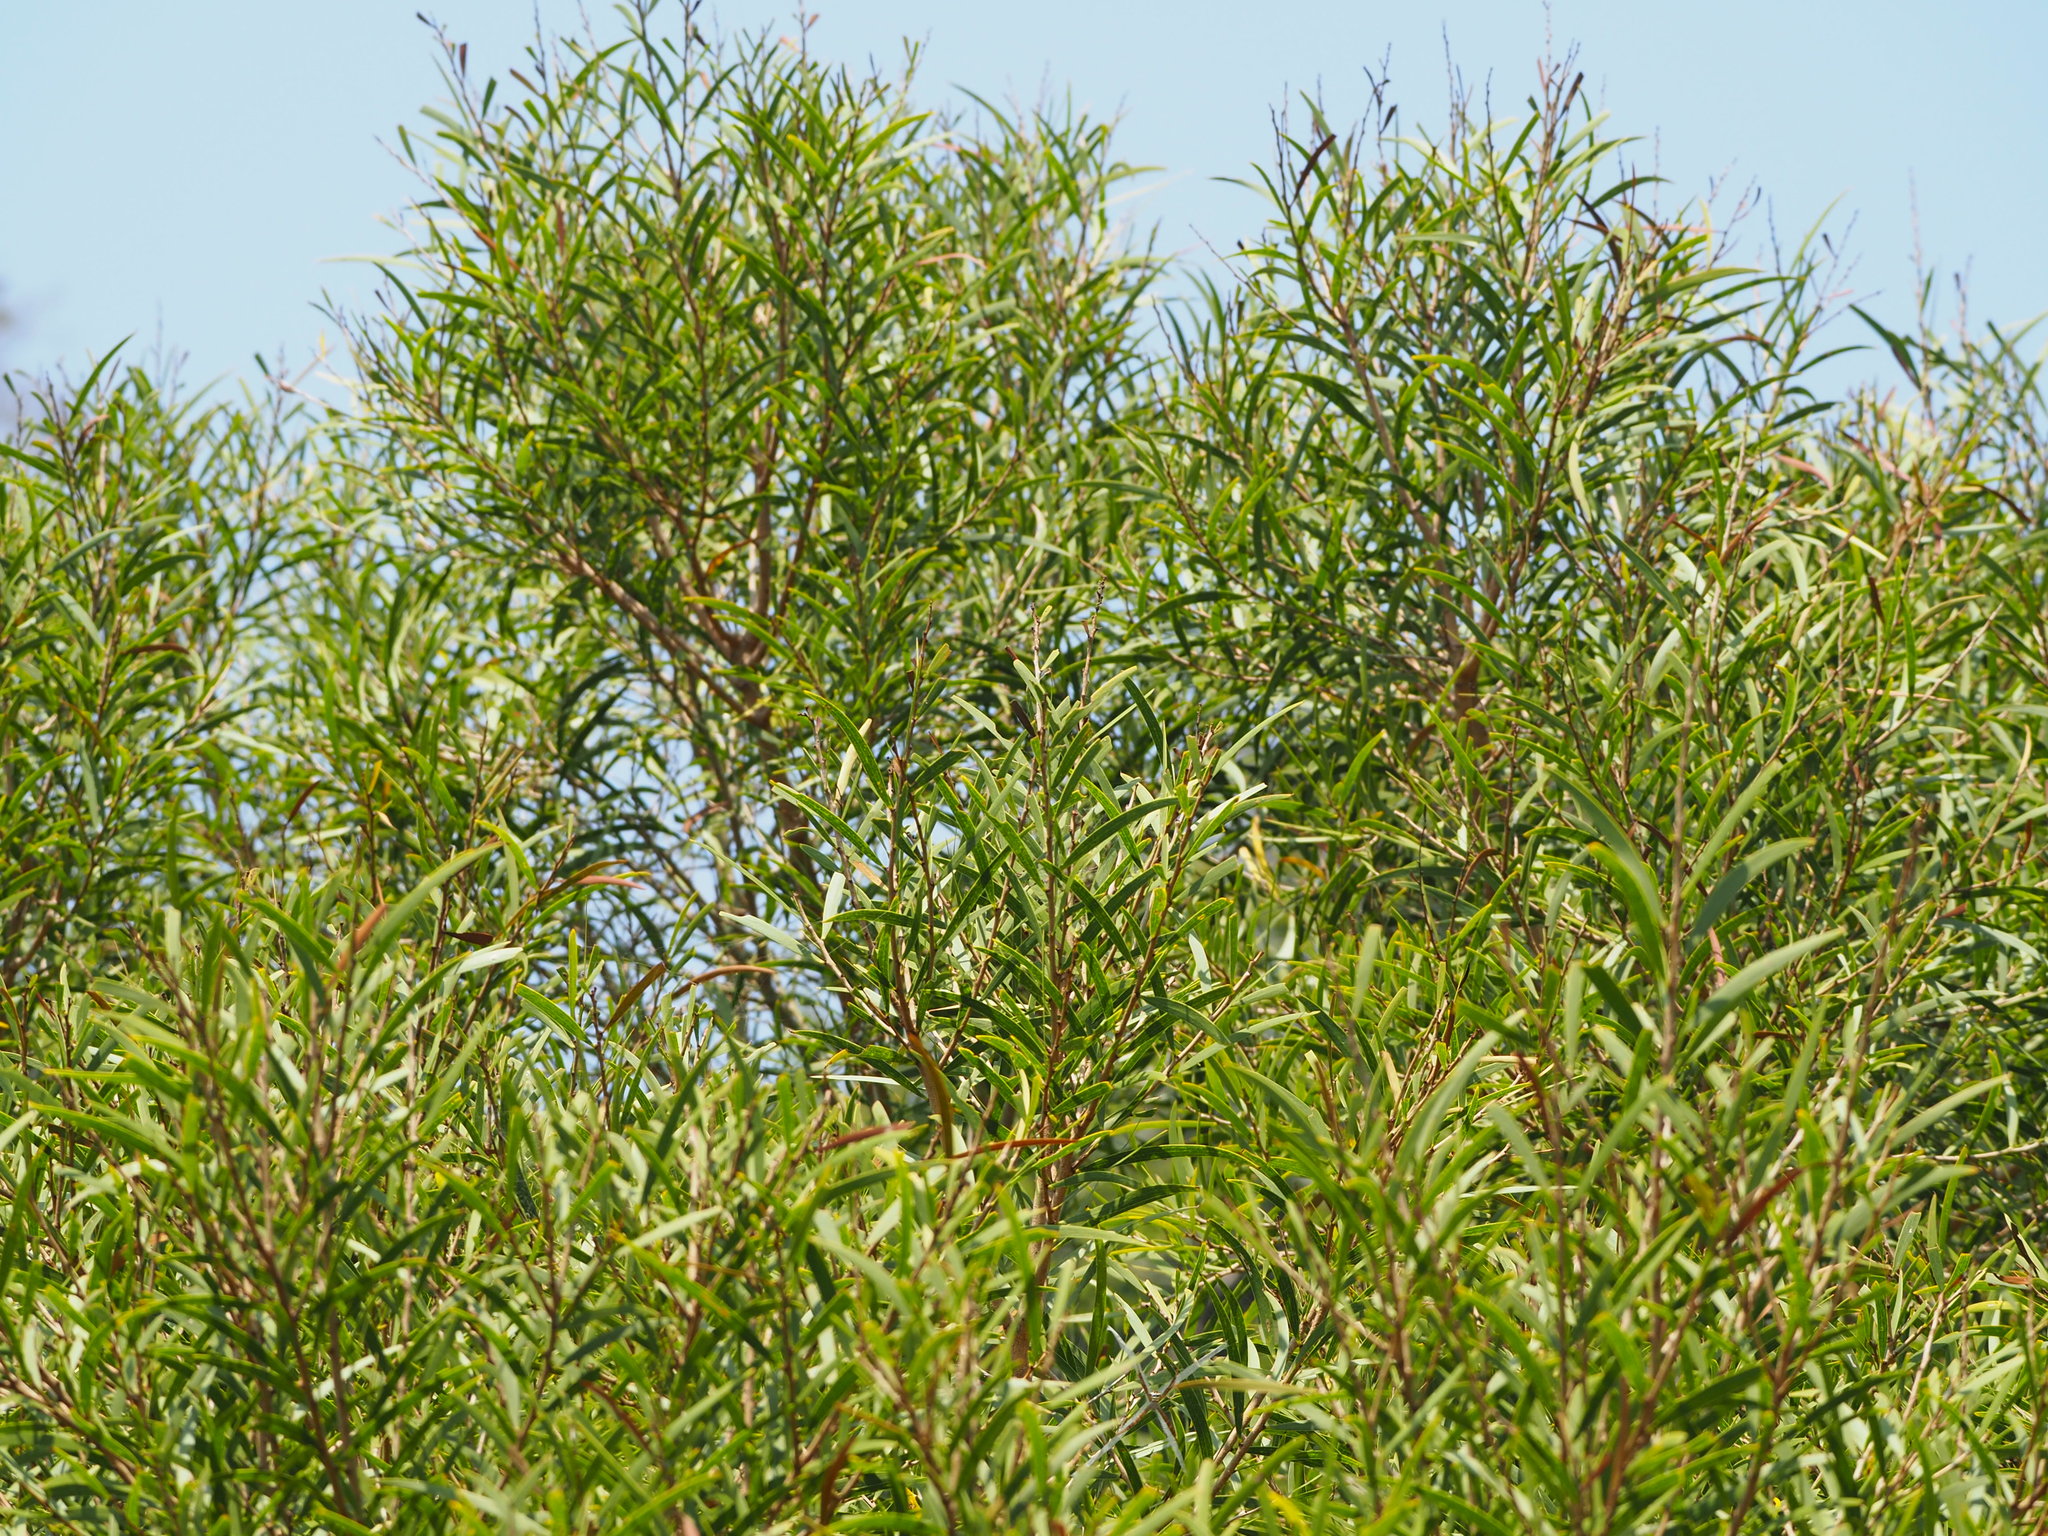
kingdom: Plantae
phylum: Tracheophyta
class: Magnoliopsida
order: Fabales
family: Fabaceae
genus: Acacia
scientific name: Acacia confusa
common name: Formosan koa
